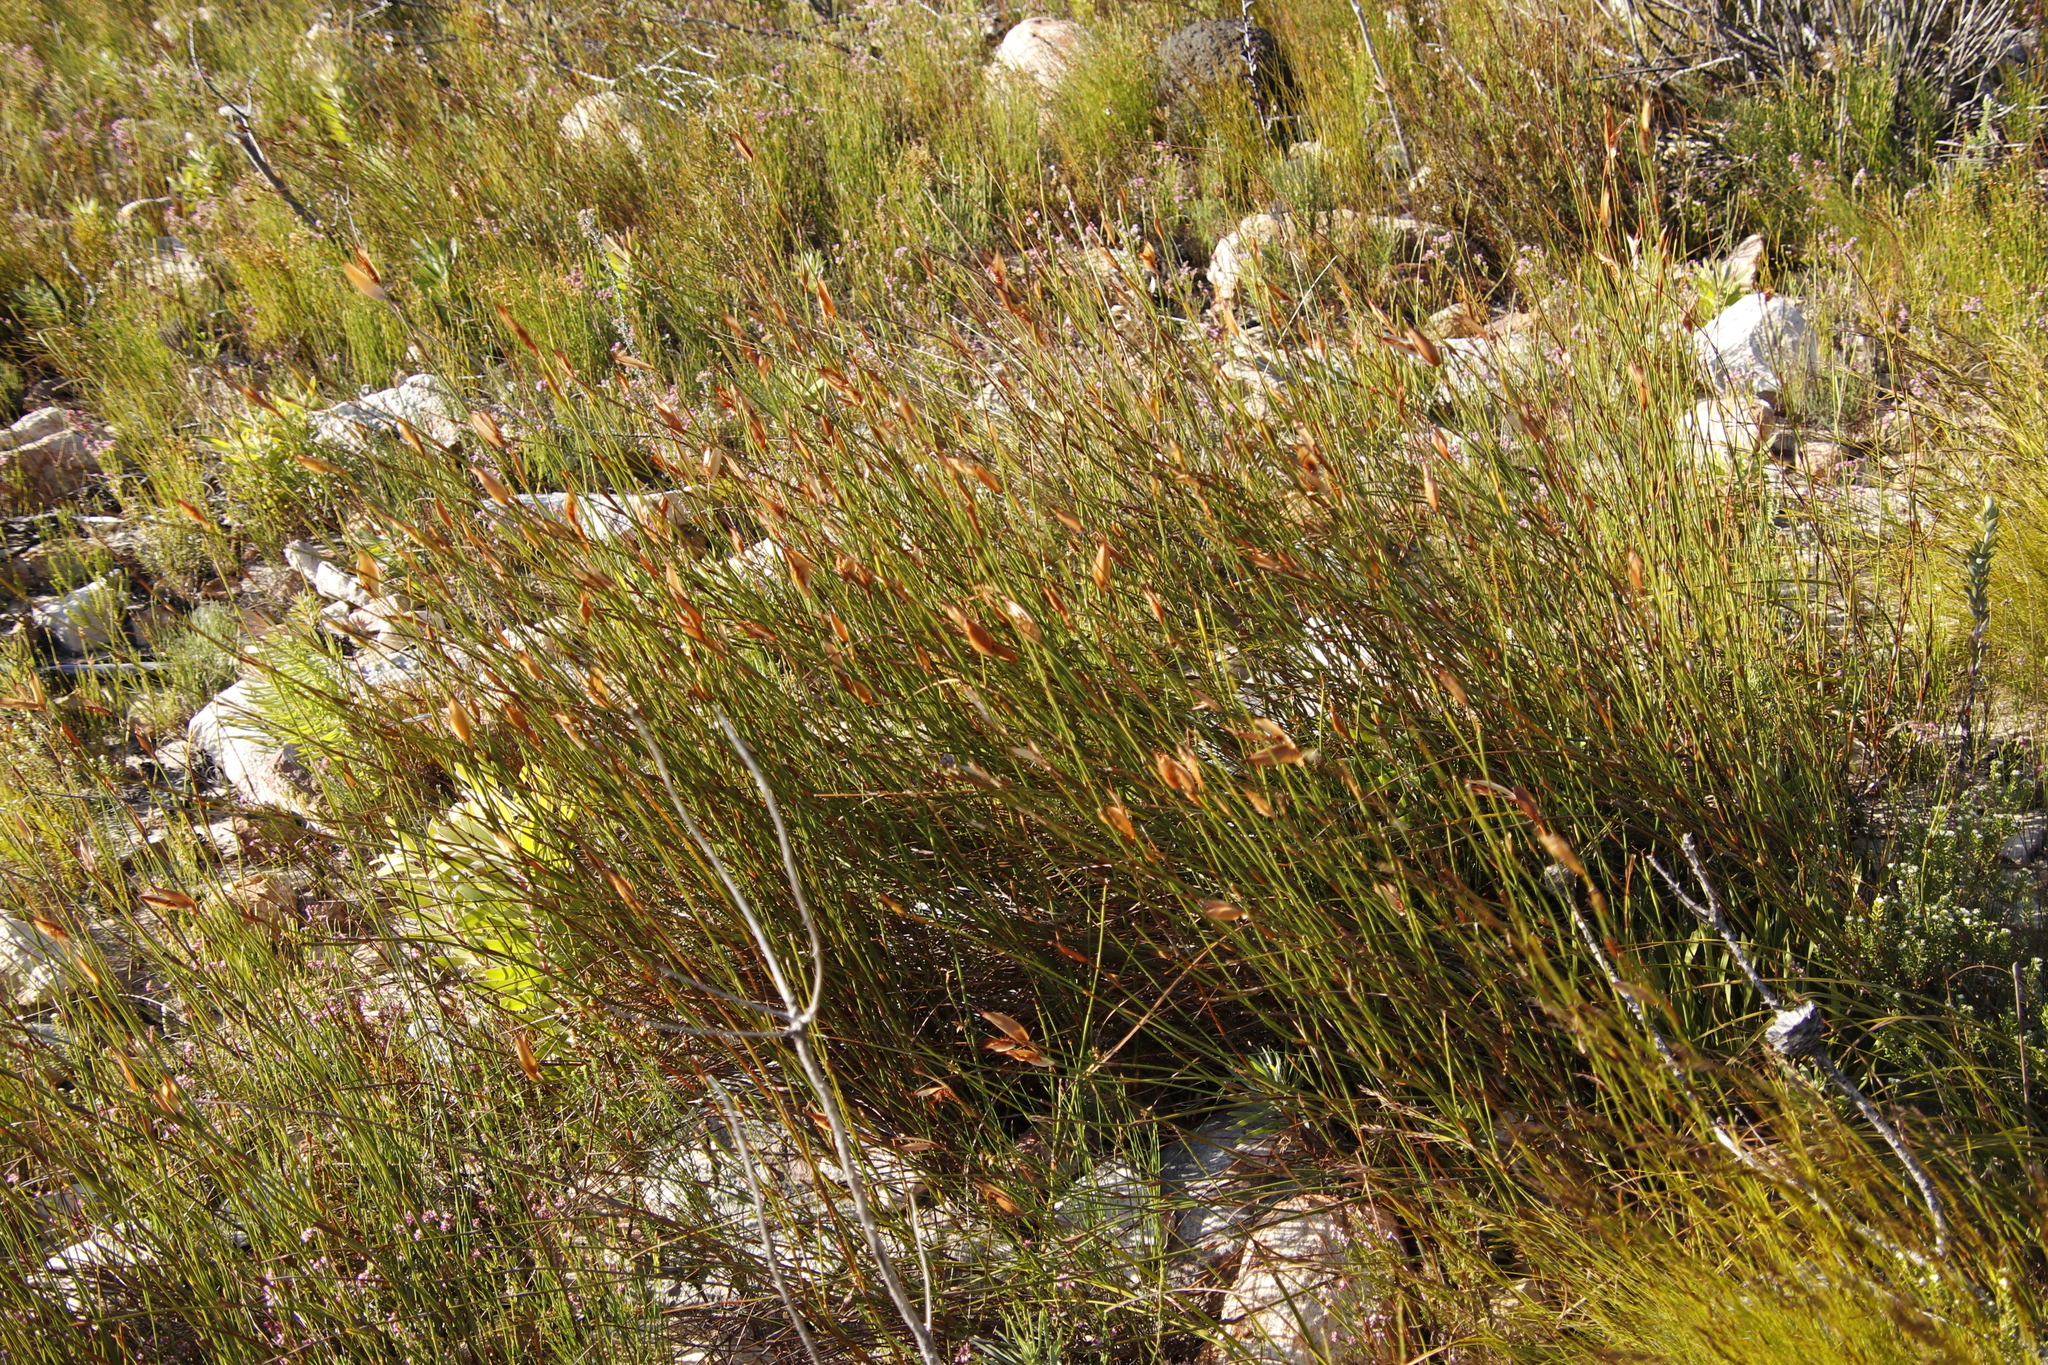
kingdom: Plantae
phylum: Tracheophyta
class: Liliopsida
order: Poales
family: Restionaceae
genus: Willdenowia
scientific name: Willdenowia glomerata
